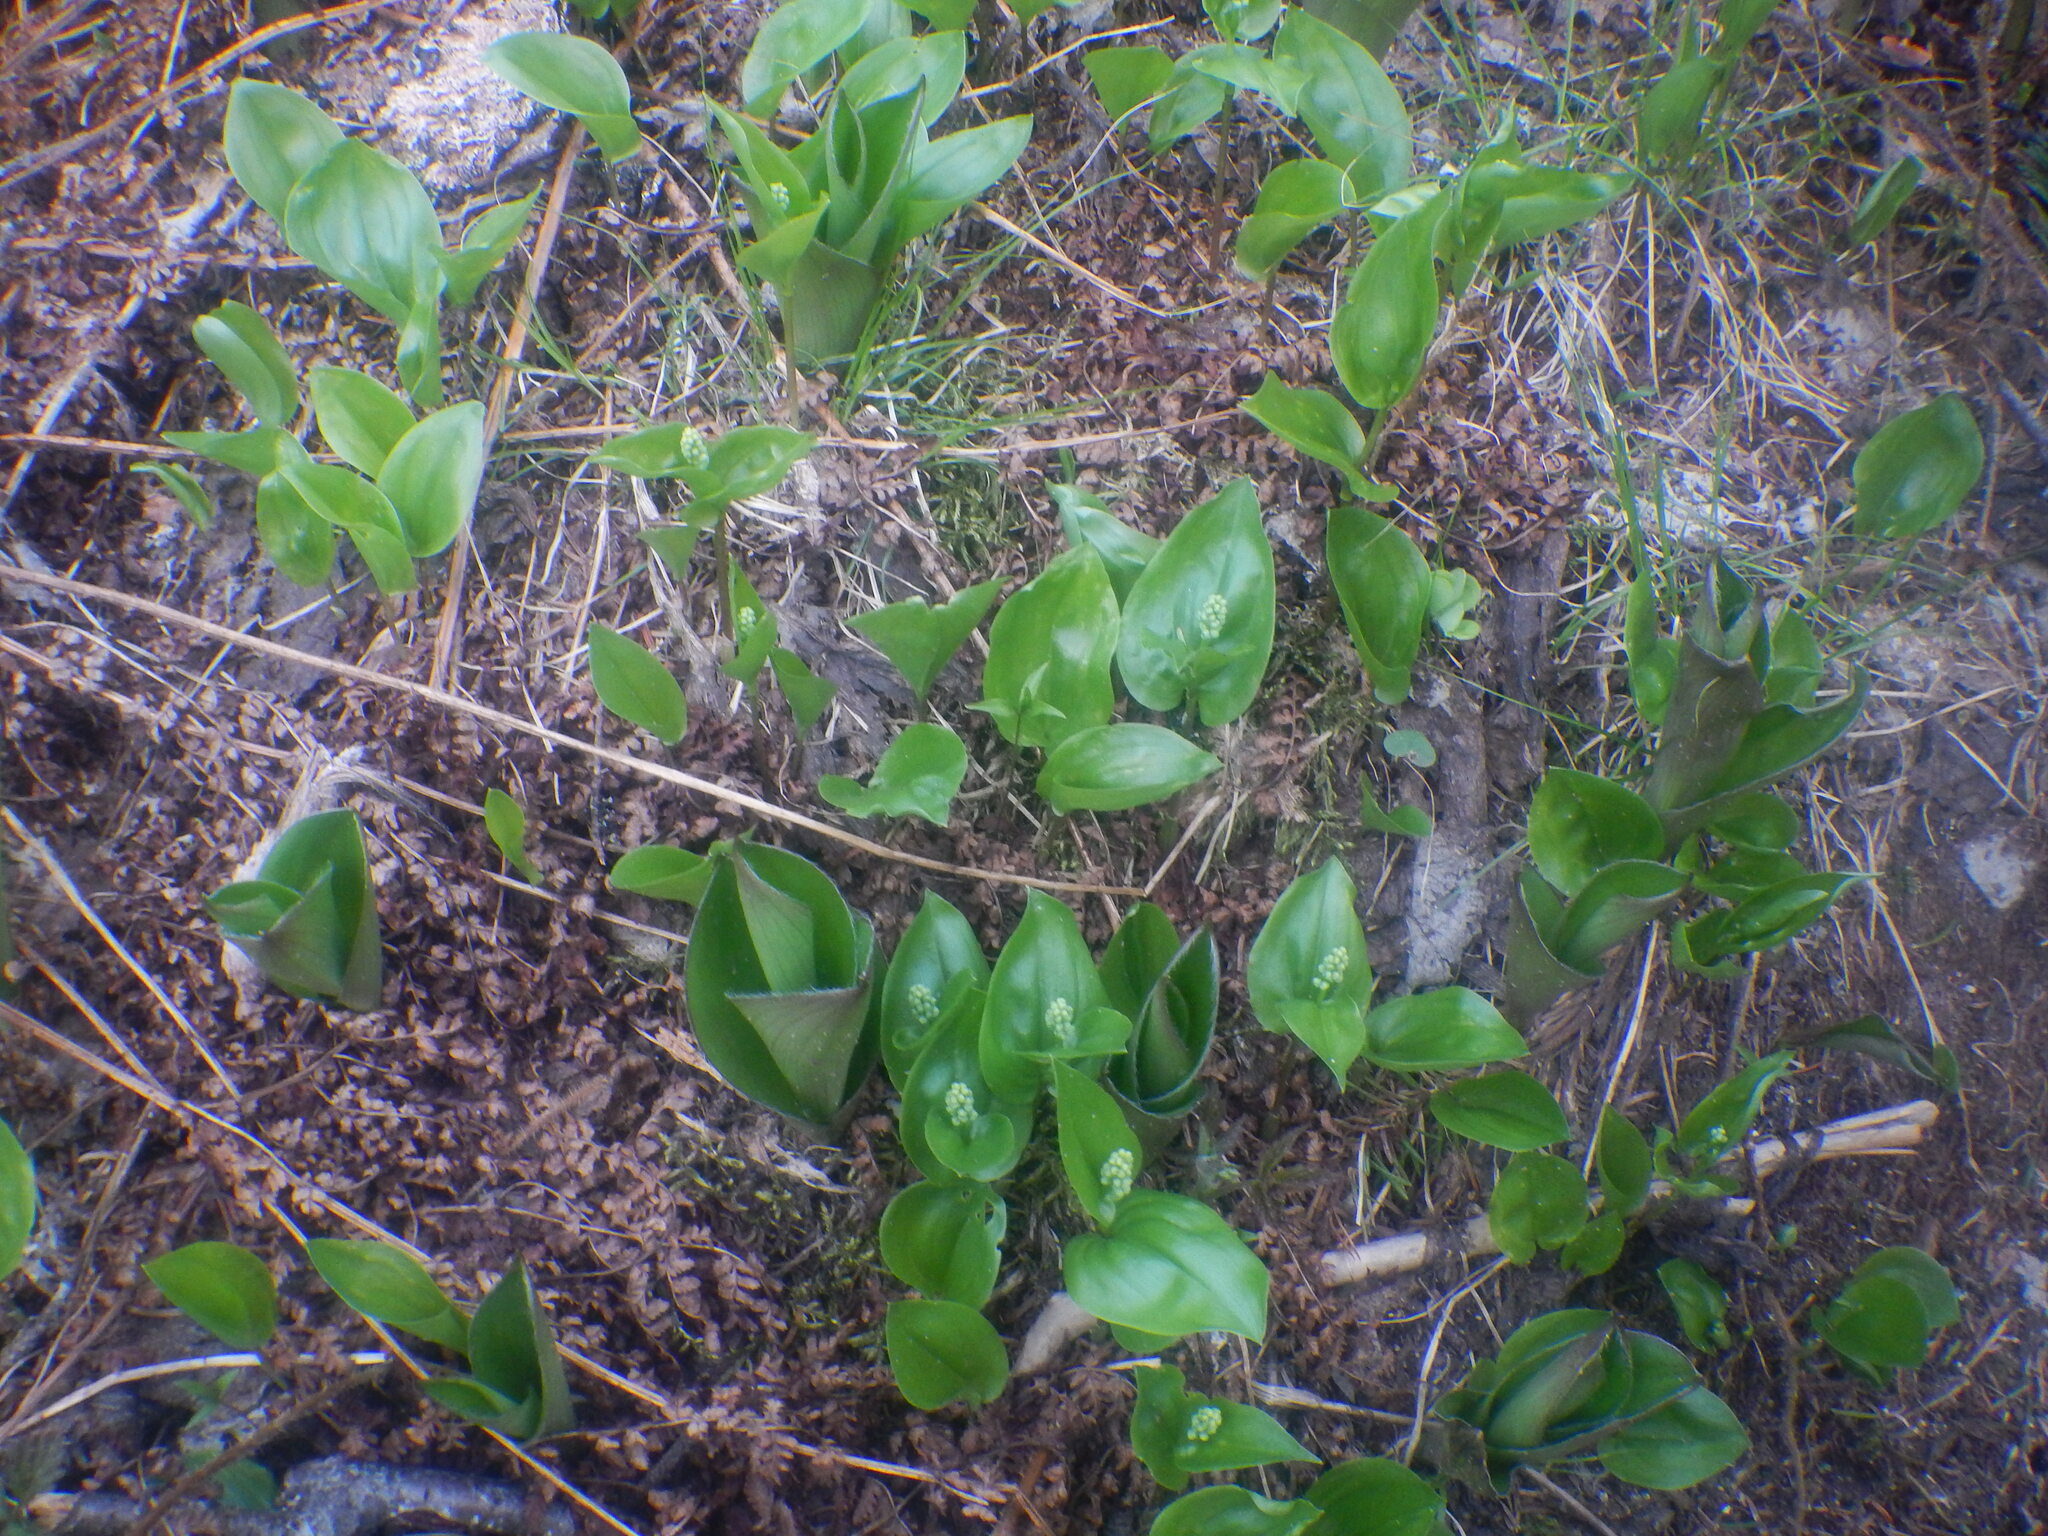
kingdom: Plantae
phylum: Tracheophyta
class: Liliopsida
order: Asparagales
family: Asparagaceae
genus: Maianthemum
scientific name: Maianthemum canadense
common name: False lily-of-the-valley
